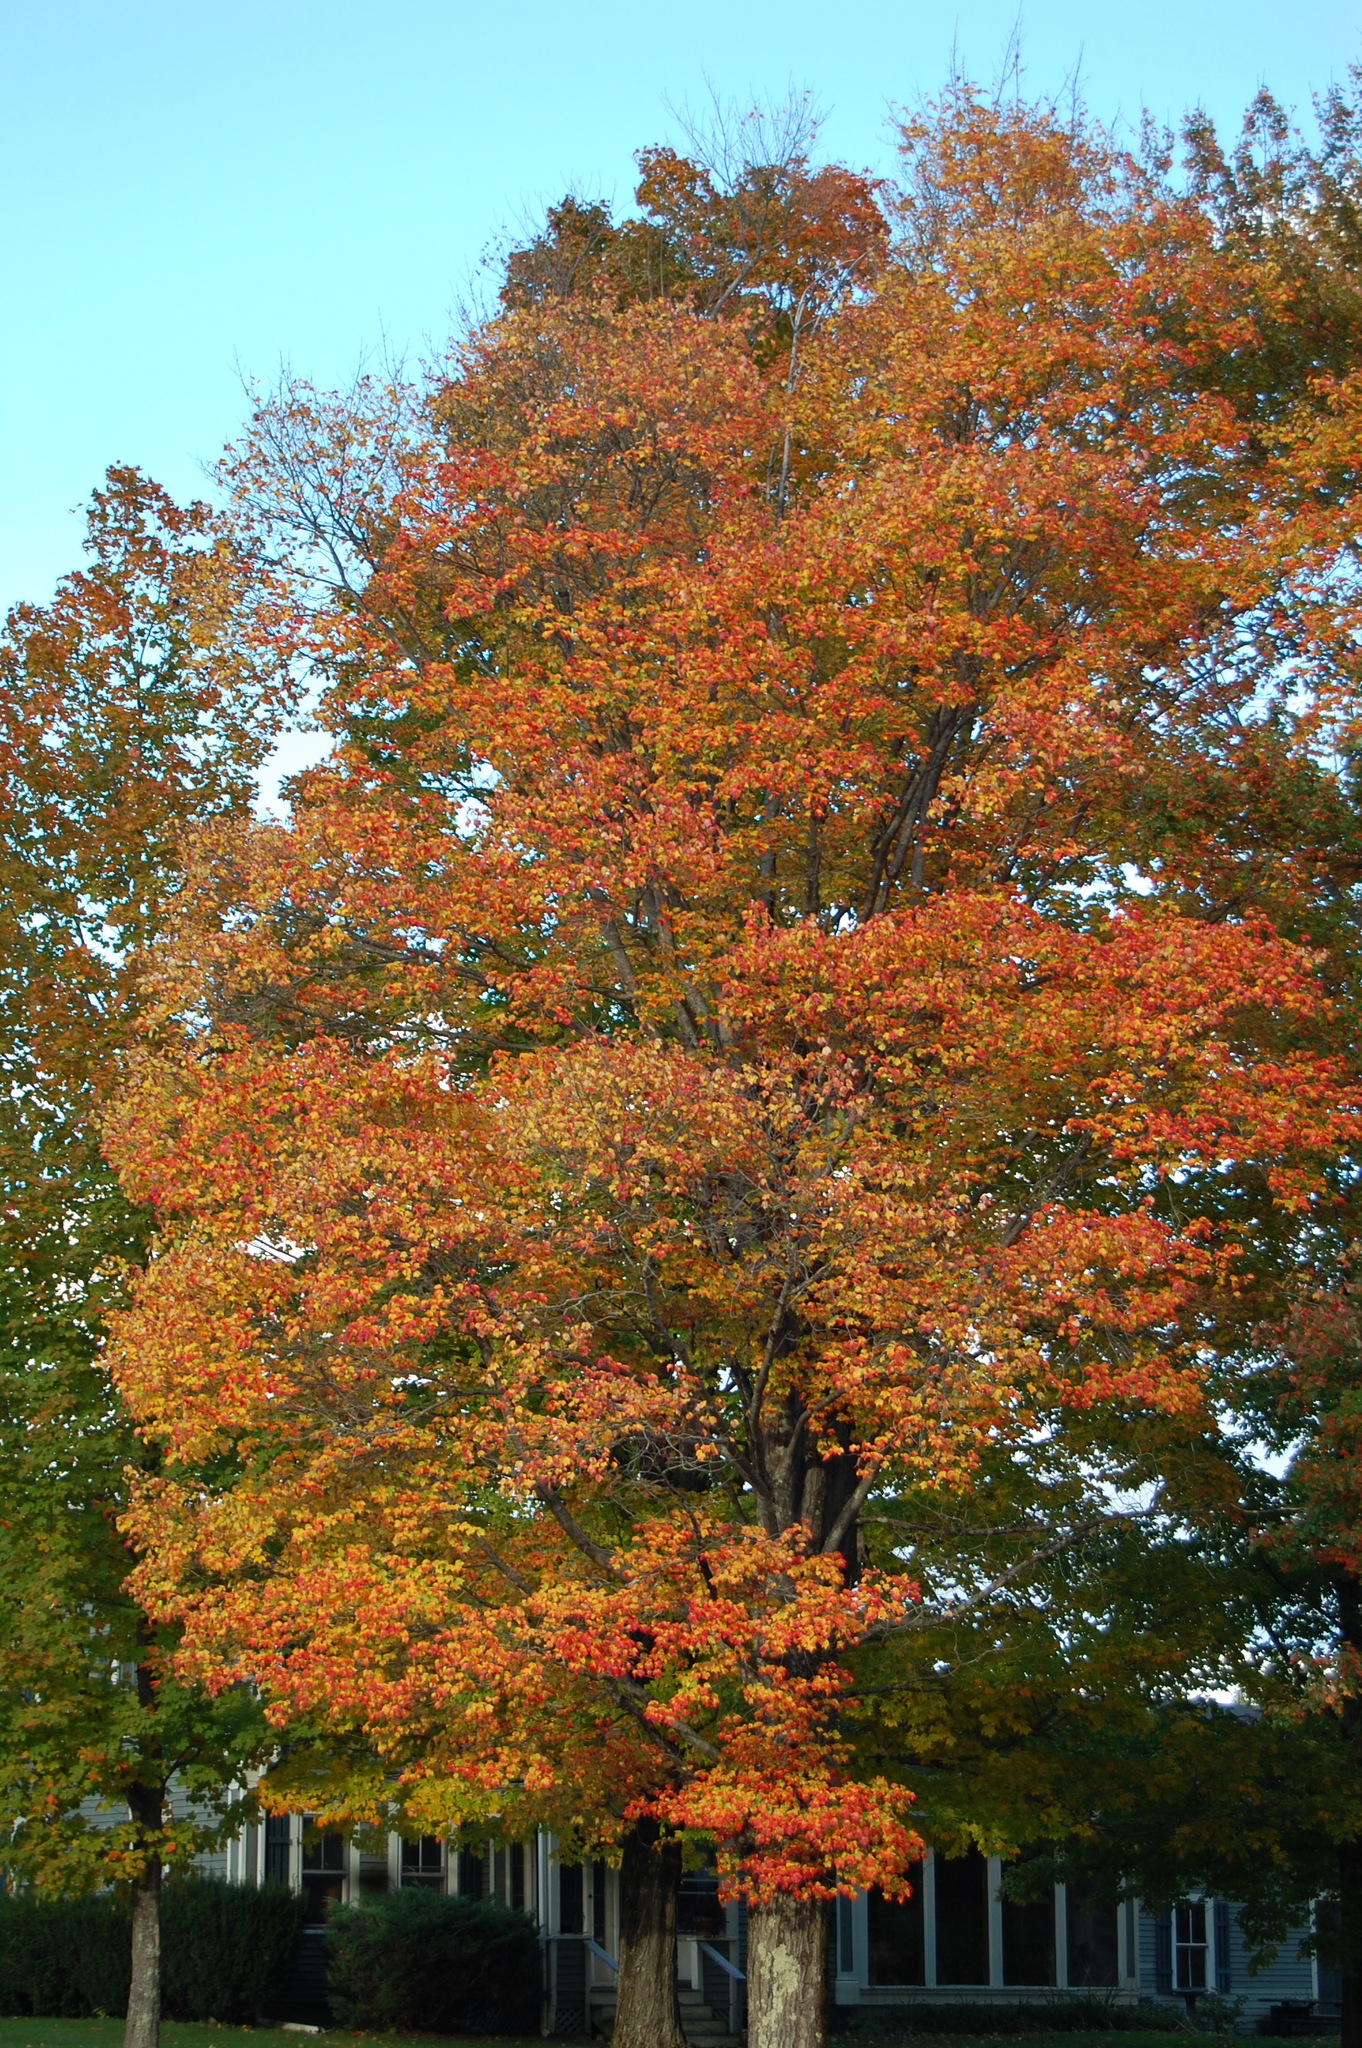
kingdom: Plantae
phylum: Tracheophyta
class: Magnoliopsida
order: Sapindales
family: Sapindaceae
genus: Acer
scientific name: Acer saccharum
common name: Sugar maple
